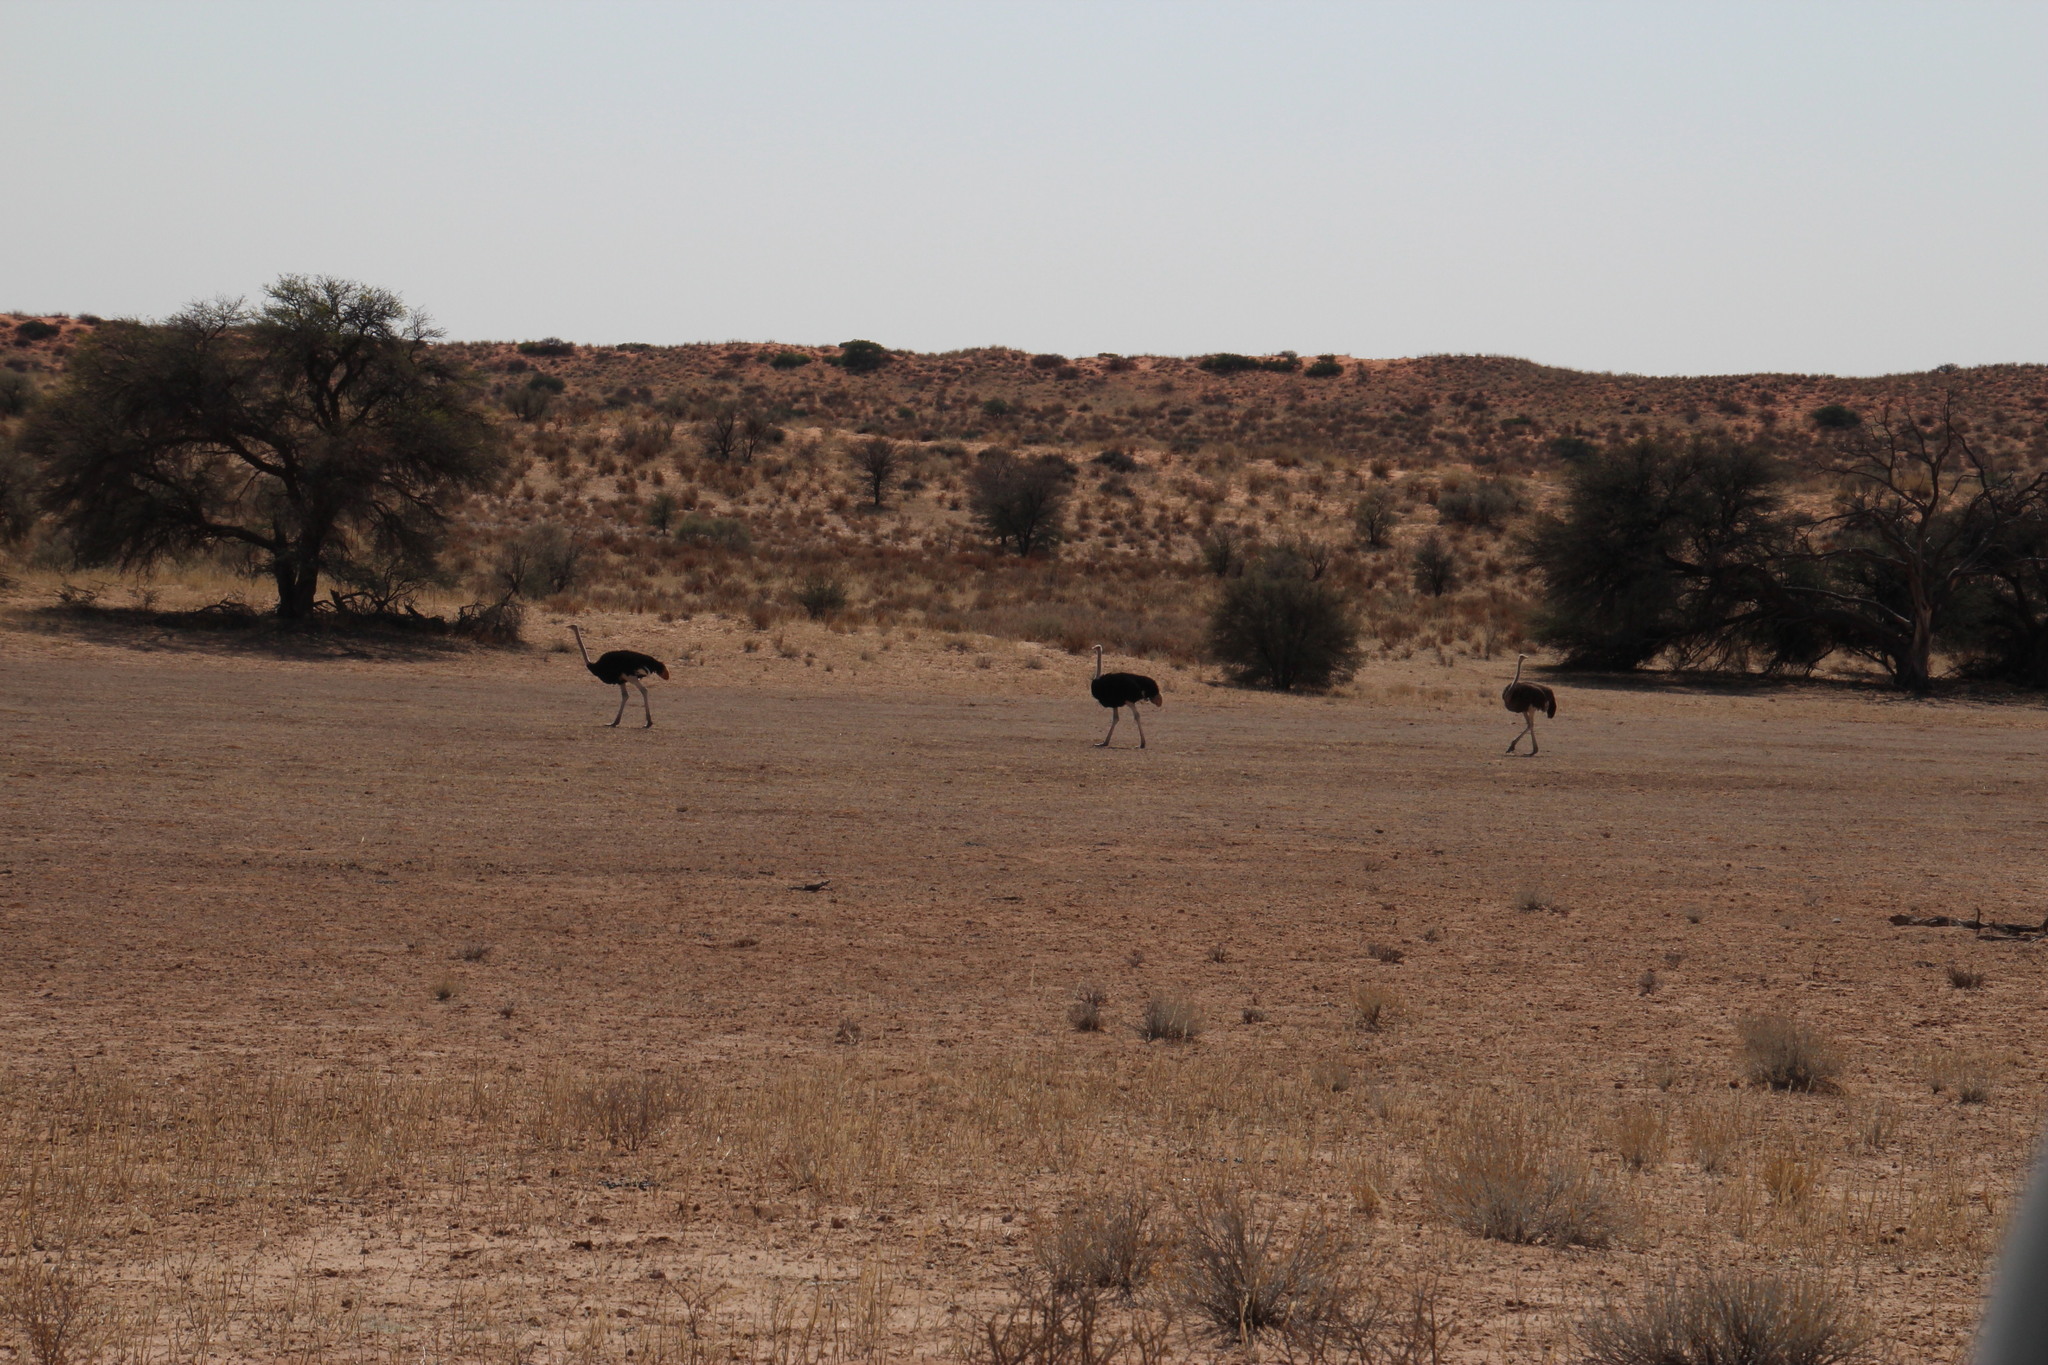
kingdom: Animalia
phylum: Chordata
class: Aves
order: Struthioniformes
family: Struthionidae
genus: Struthio
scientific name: Struthio camelus
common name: Common ostrich
